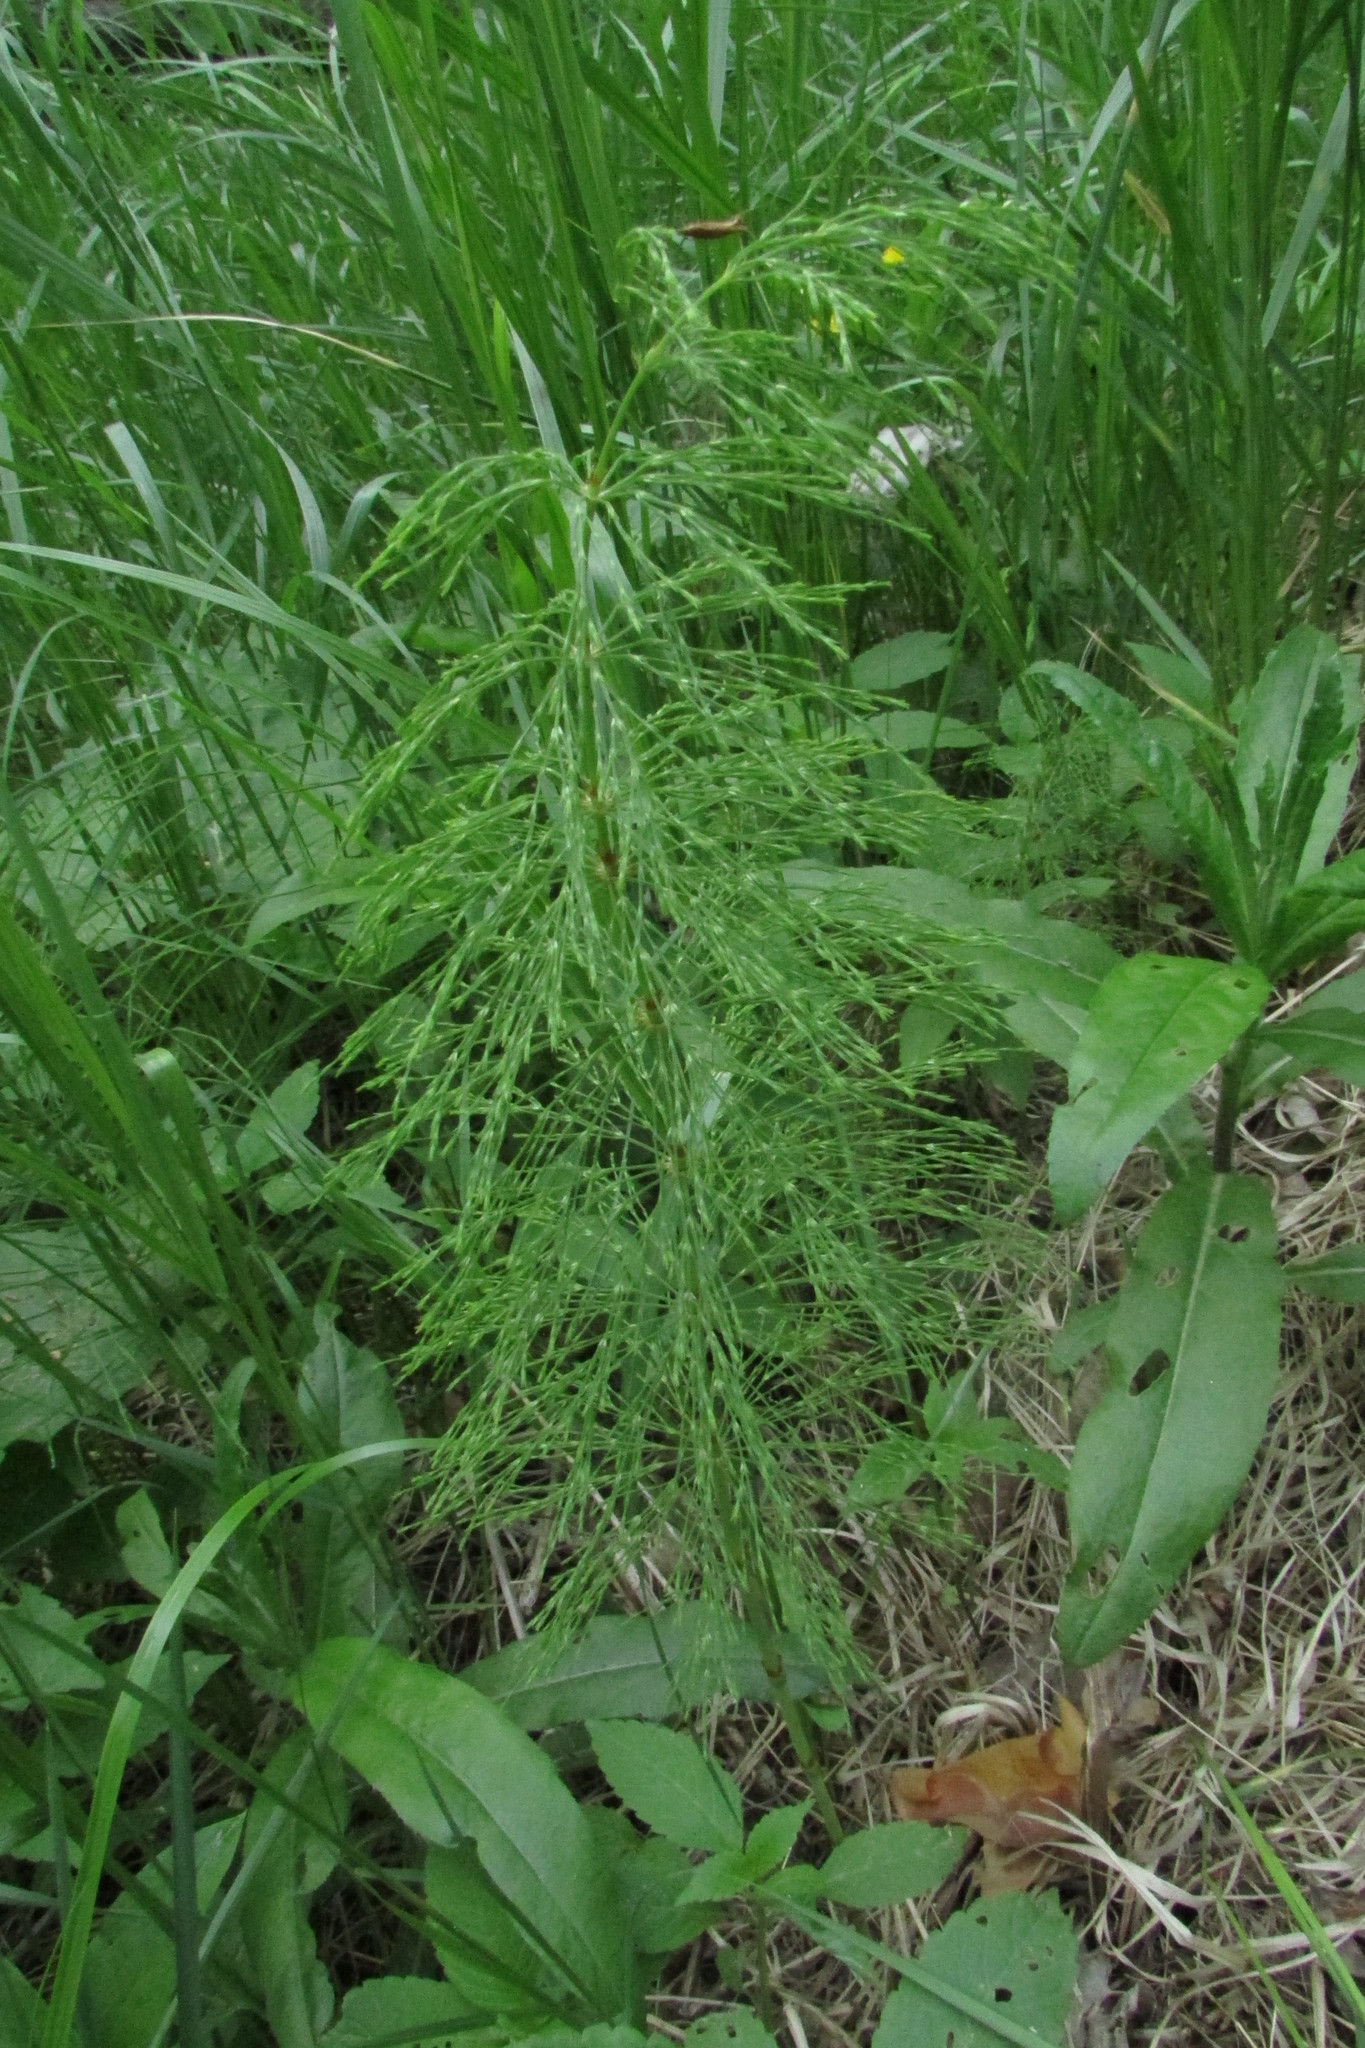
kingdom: Plantae
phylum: Tracheophyta
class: Polypodiopsida
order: Equisetales
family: Equisetaceae
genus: Equisetum
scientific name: Equisetum sylvaticum
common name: Wood horsetail
